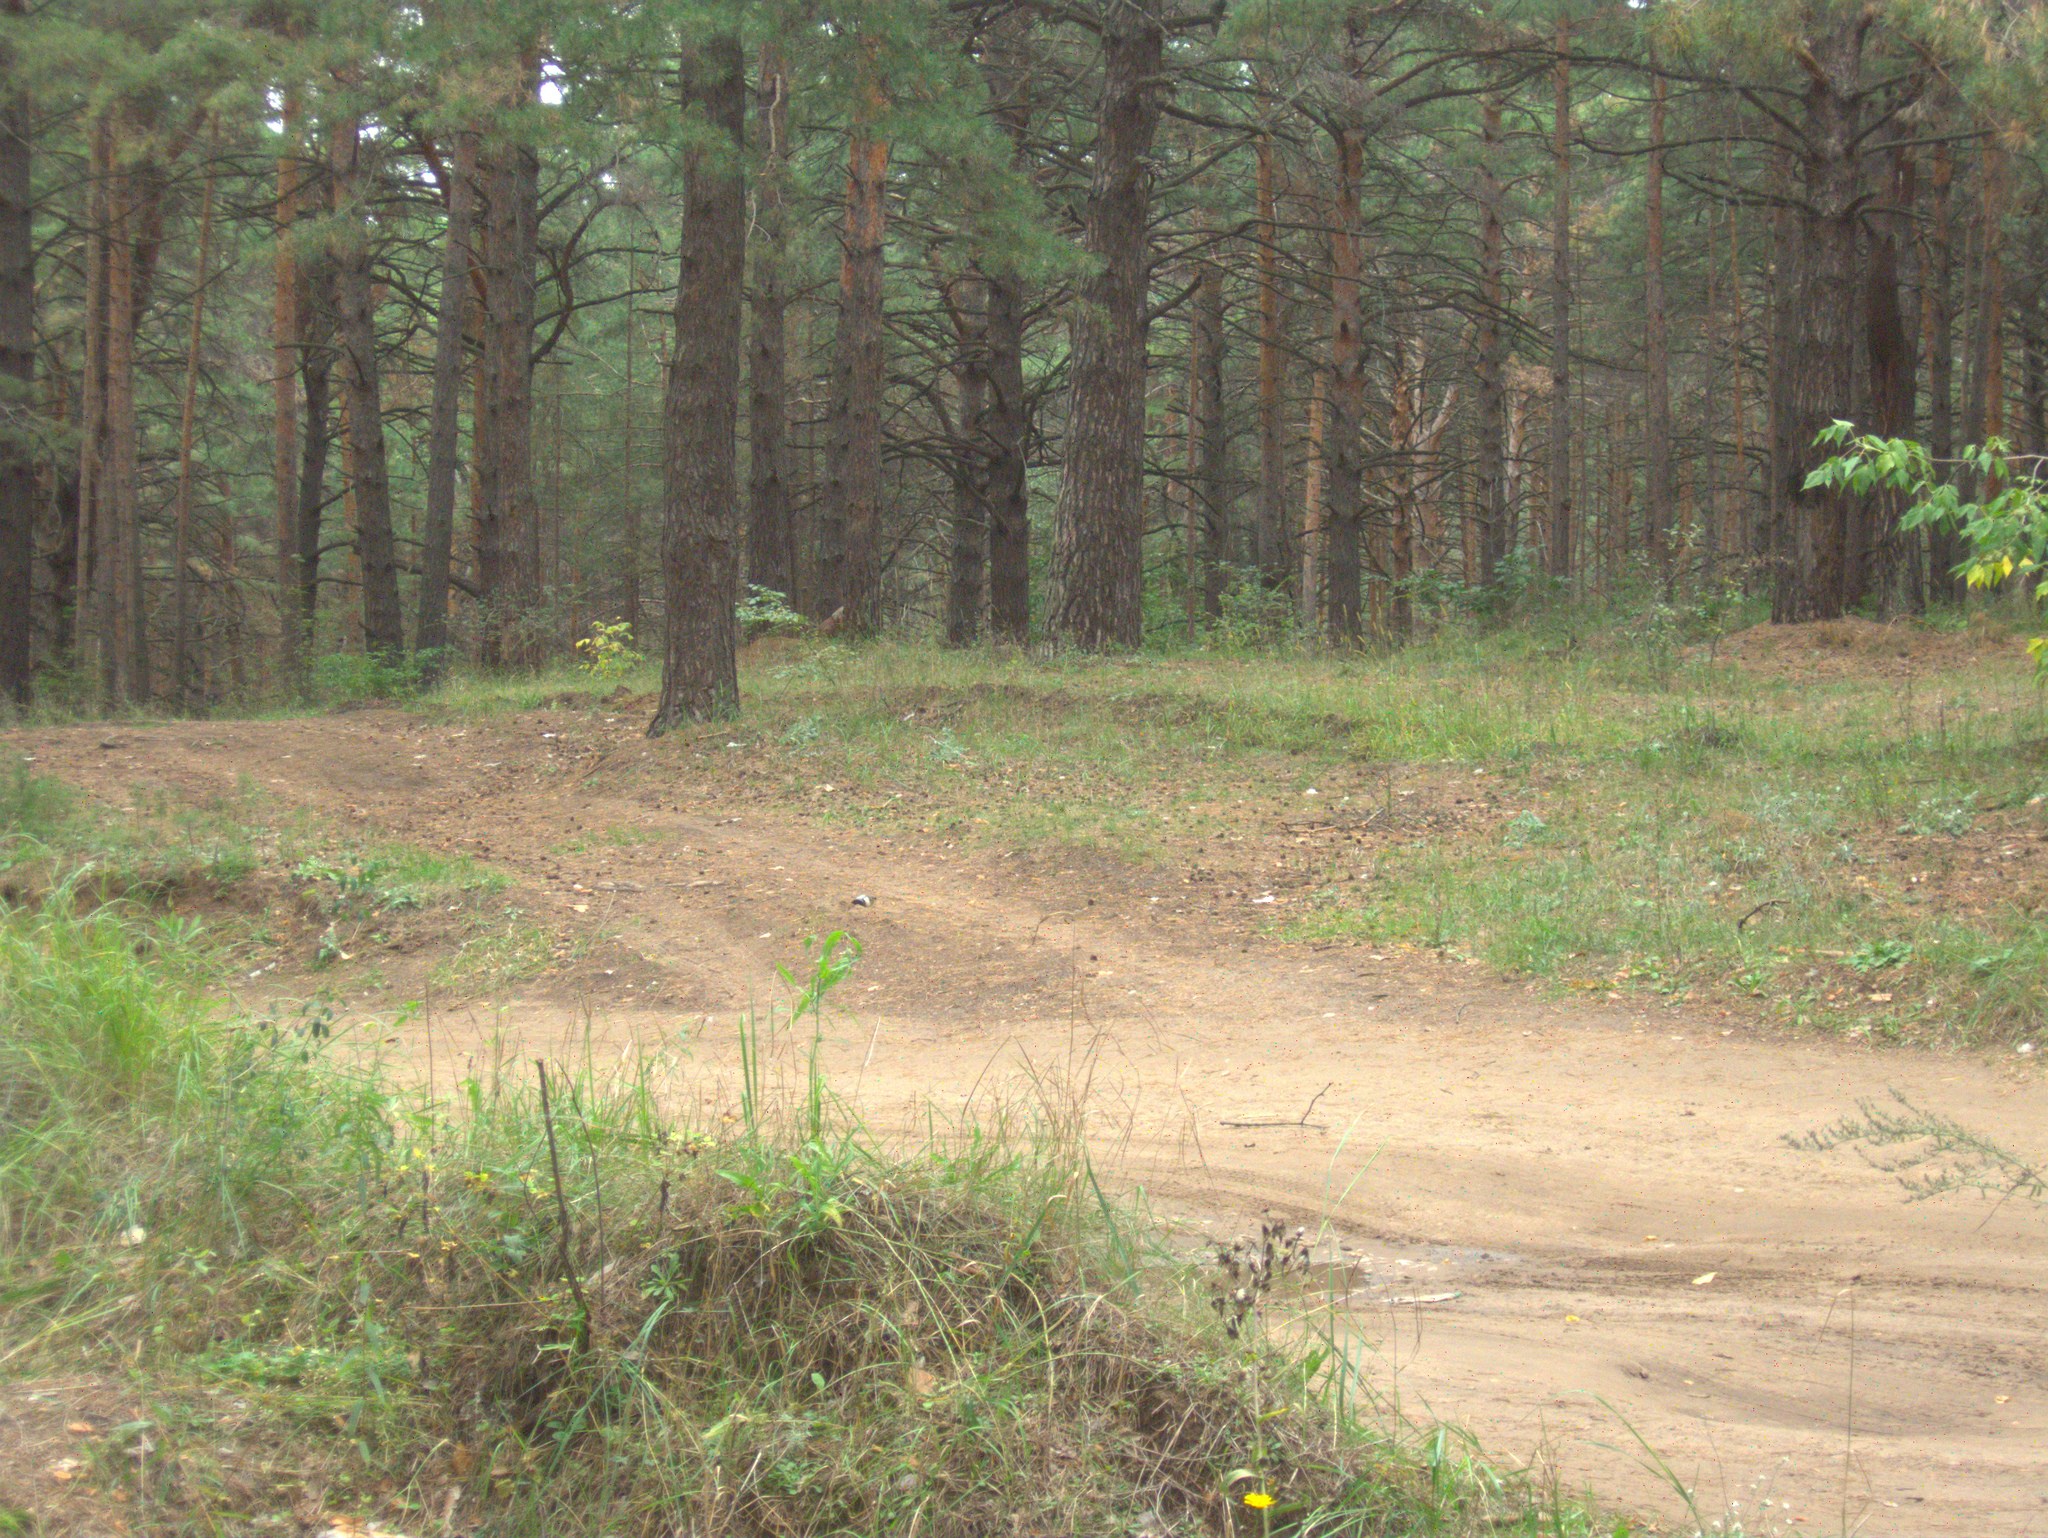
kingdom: Plantae
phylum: Tracheophyta
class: Pinopsida
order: Pinales
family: Pinaceae
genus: Pinus
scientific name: Pinus sylvestris
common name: Scots pine
